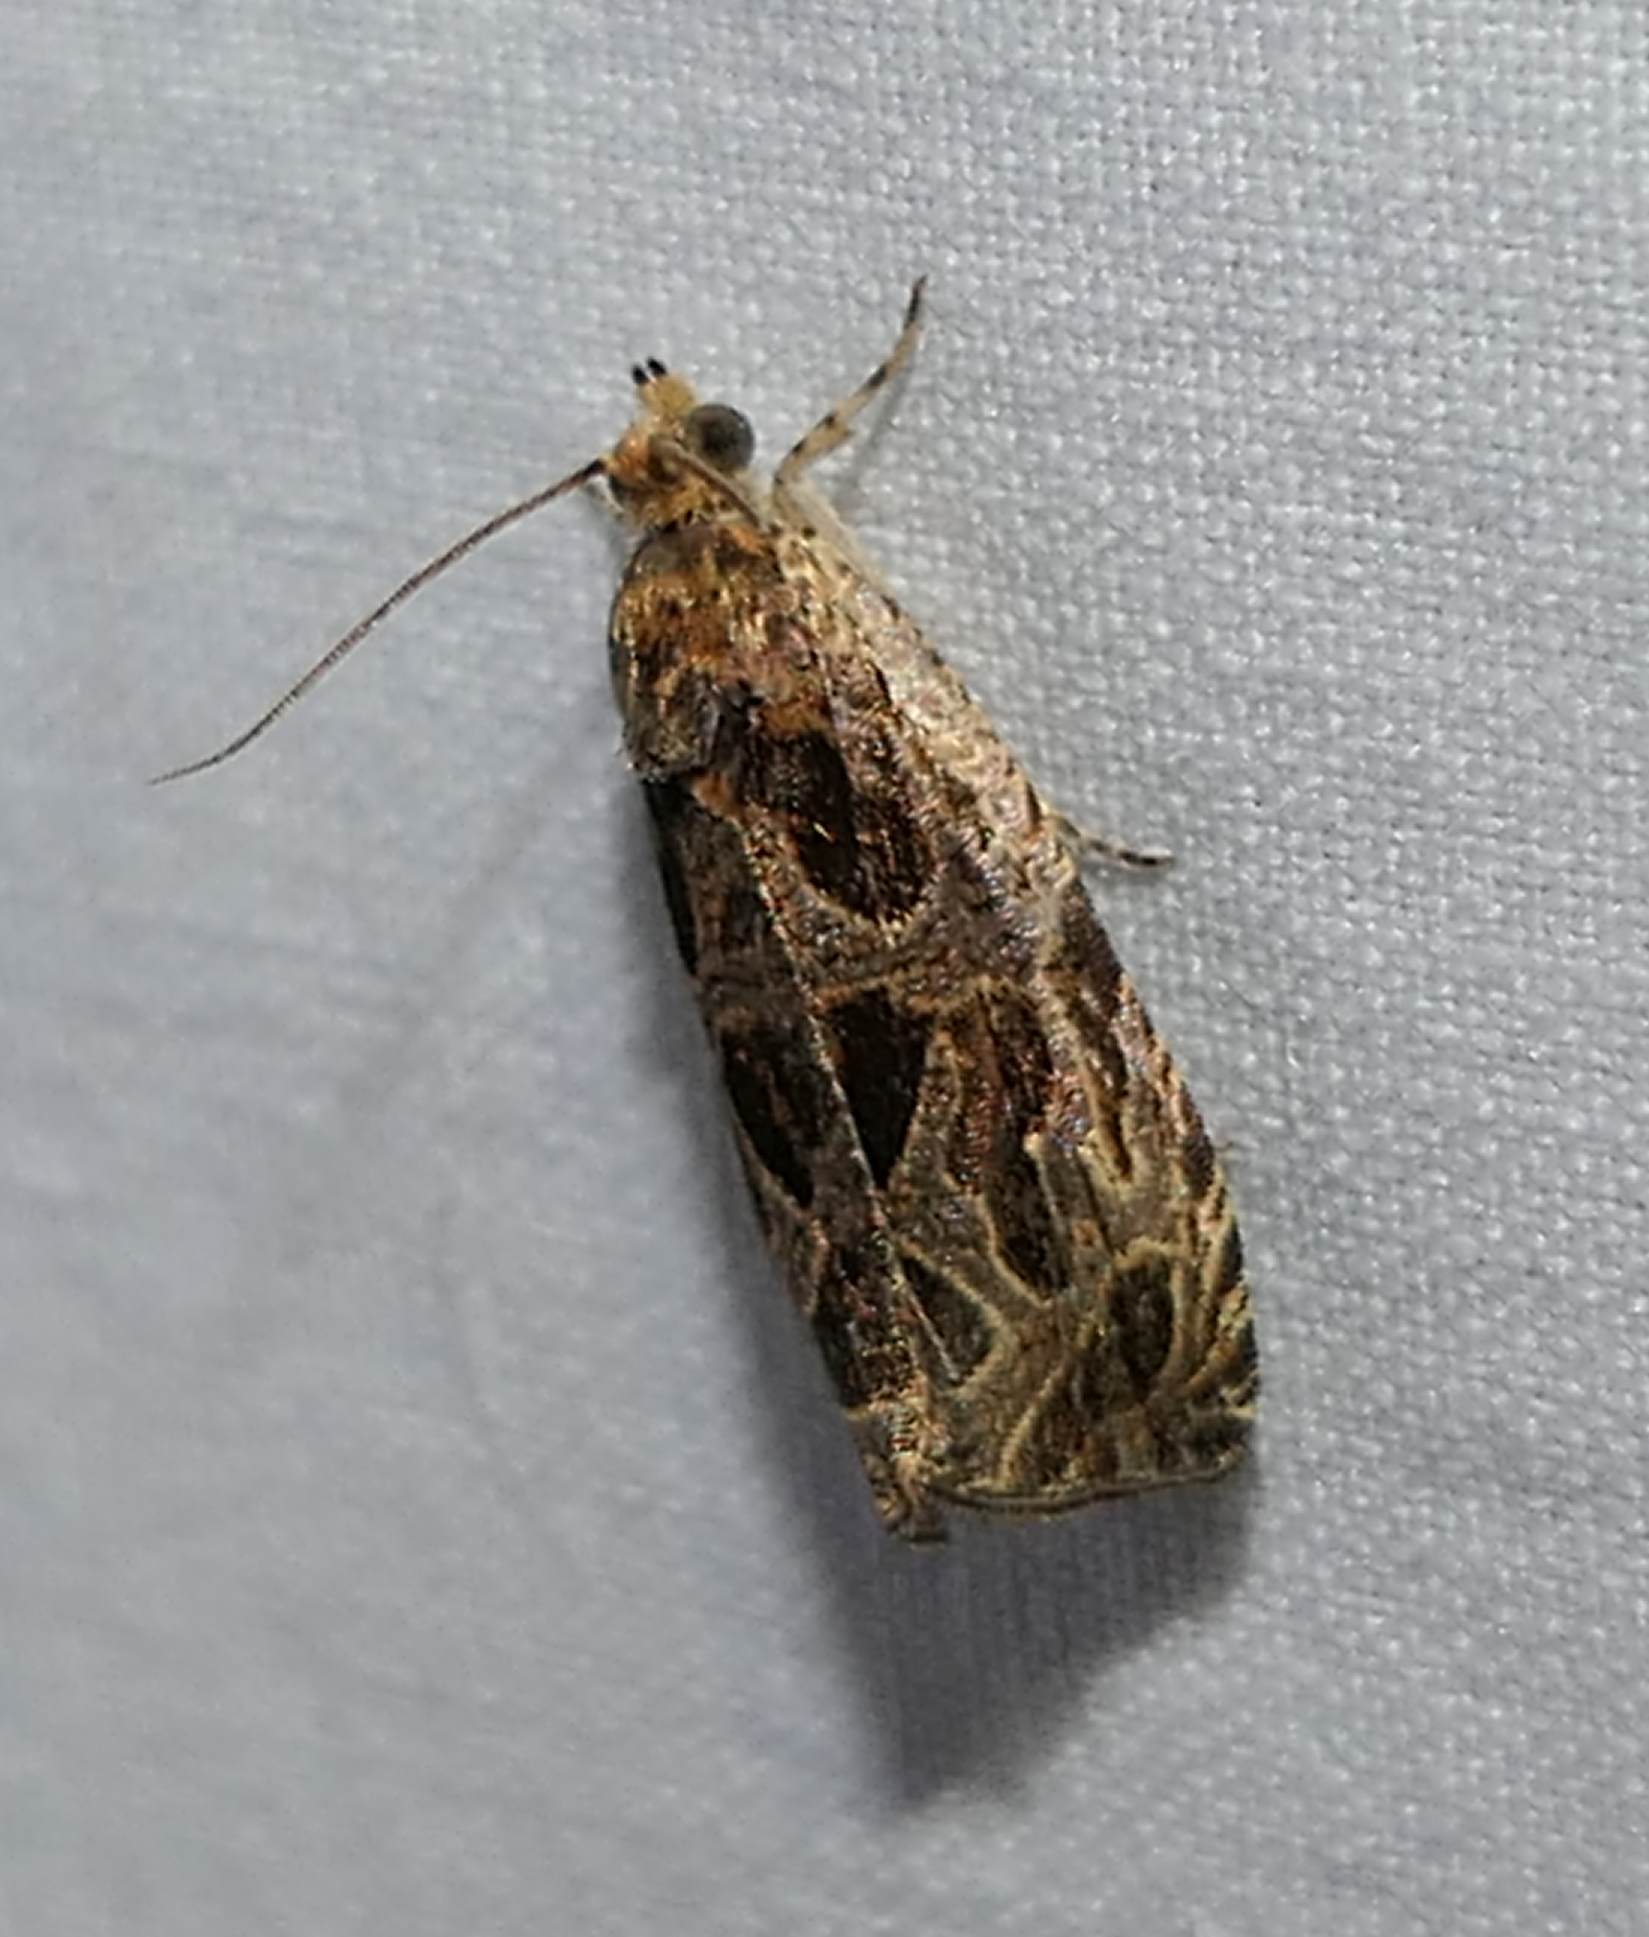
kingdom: Animalia
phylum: Arthropoda
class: Insecta
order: Lepidoptera
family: Tortricidae
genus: Olethreutes
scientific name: Olethreutes tilianum
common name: Basswood olethreutes moth
